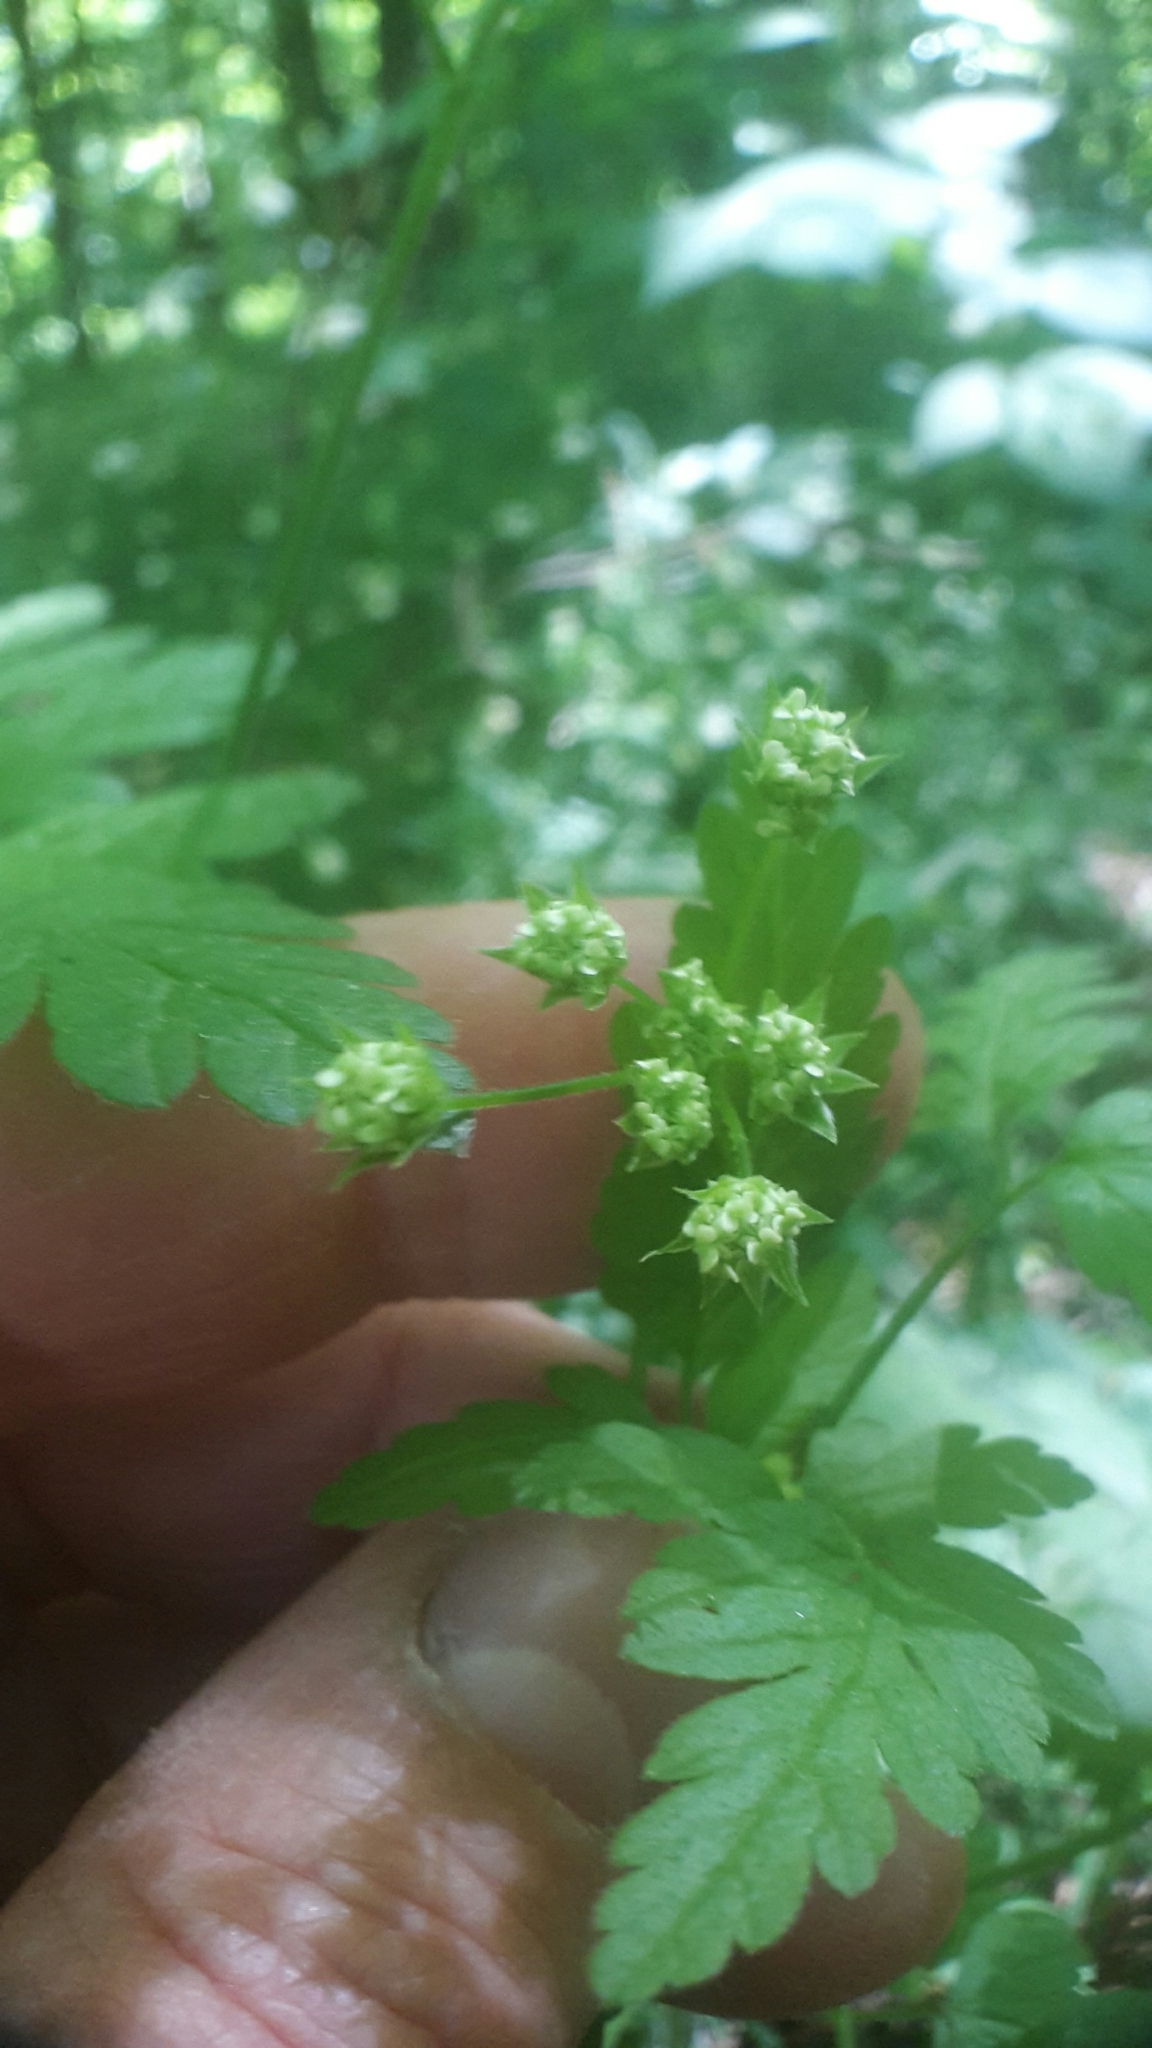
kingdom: Plantae
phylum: Tracheophyta
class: Magnoliopsida
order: Apiales
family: Apiaceae
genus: Chaerophyllum
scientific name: Chaerophyllum temulum
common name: Rough chervil
